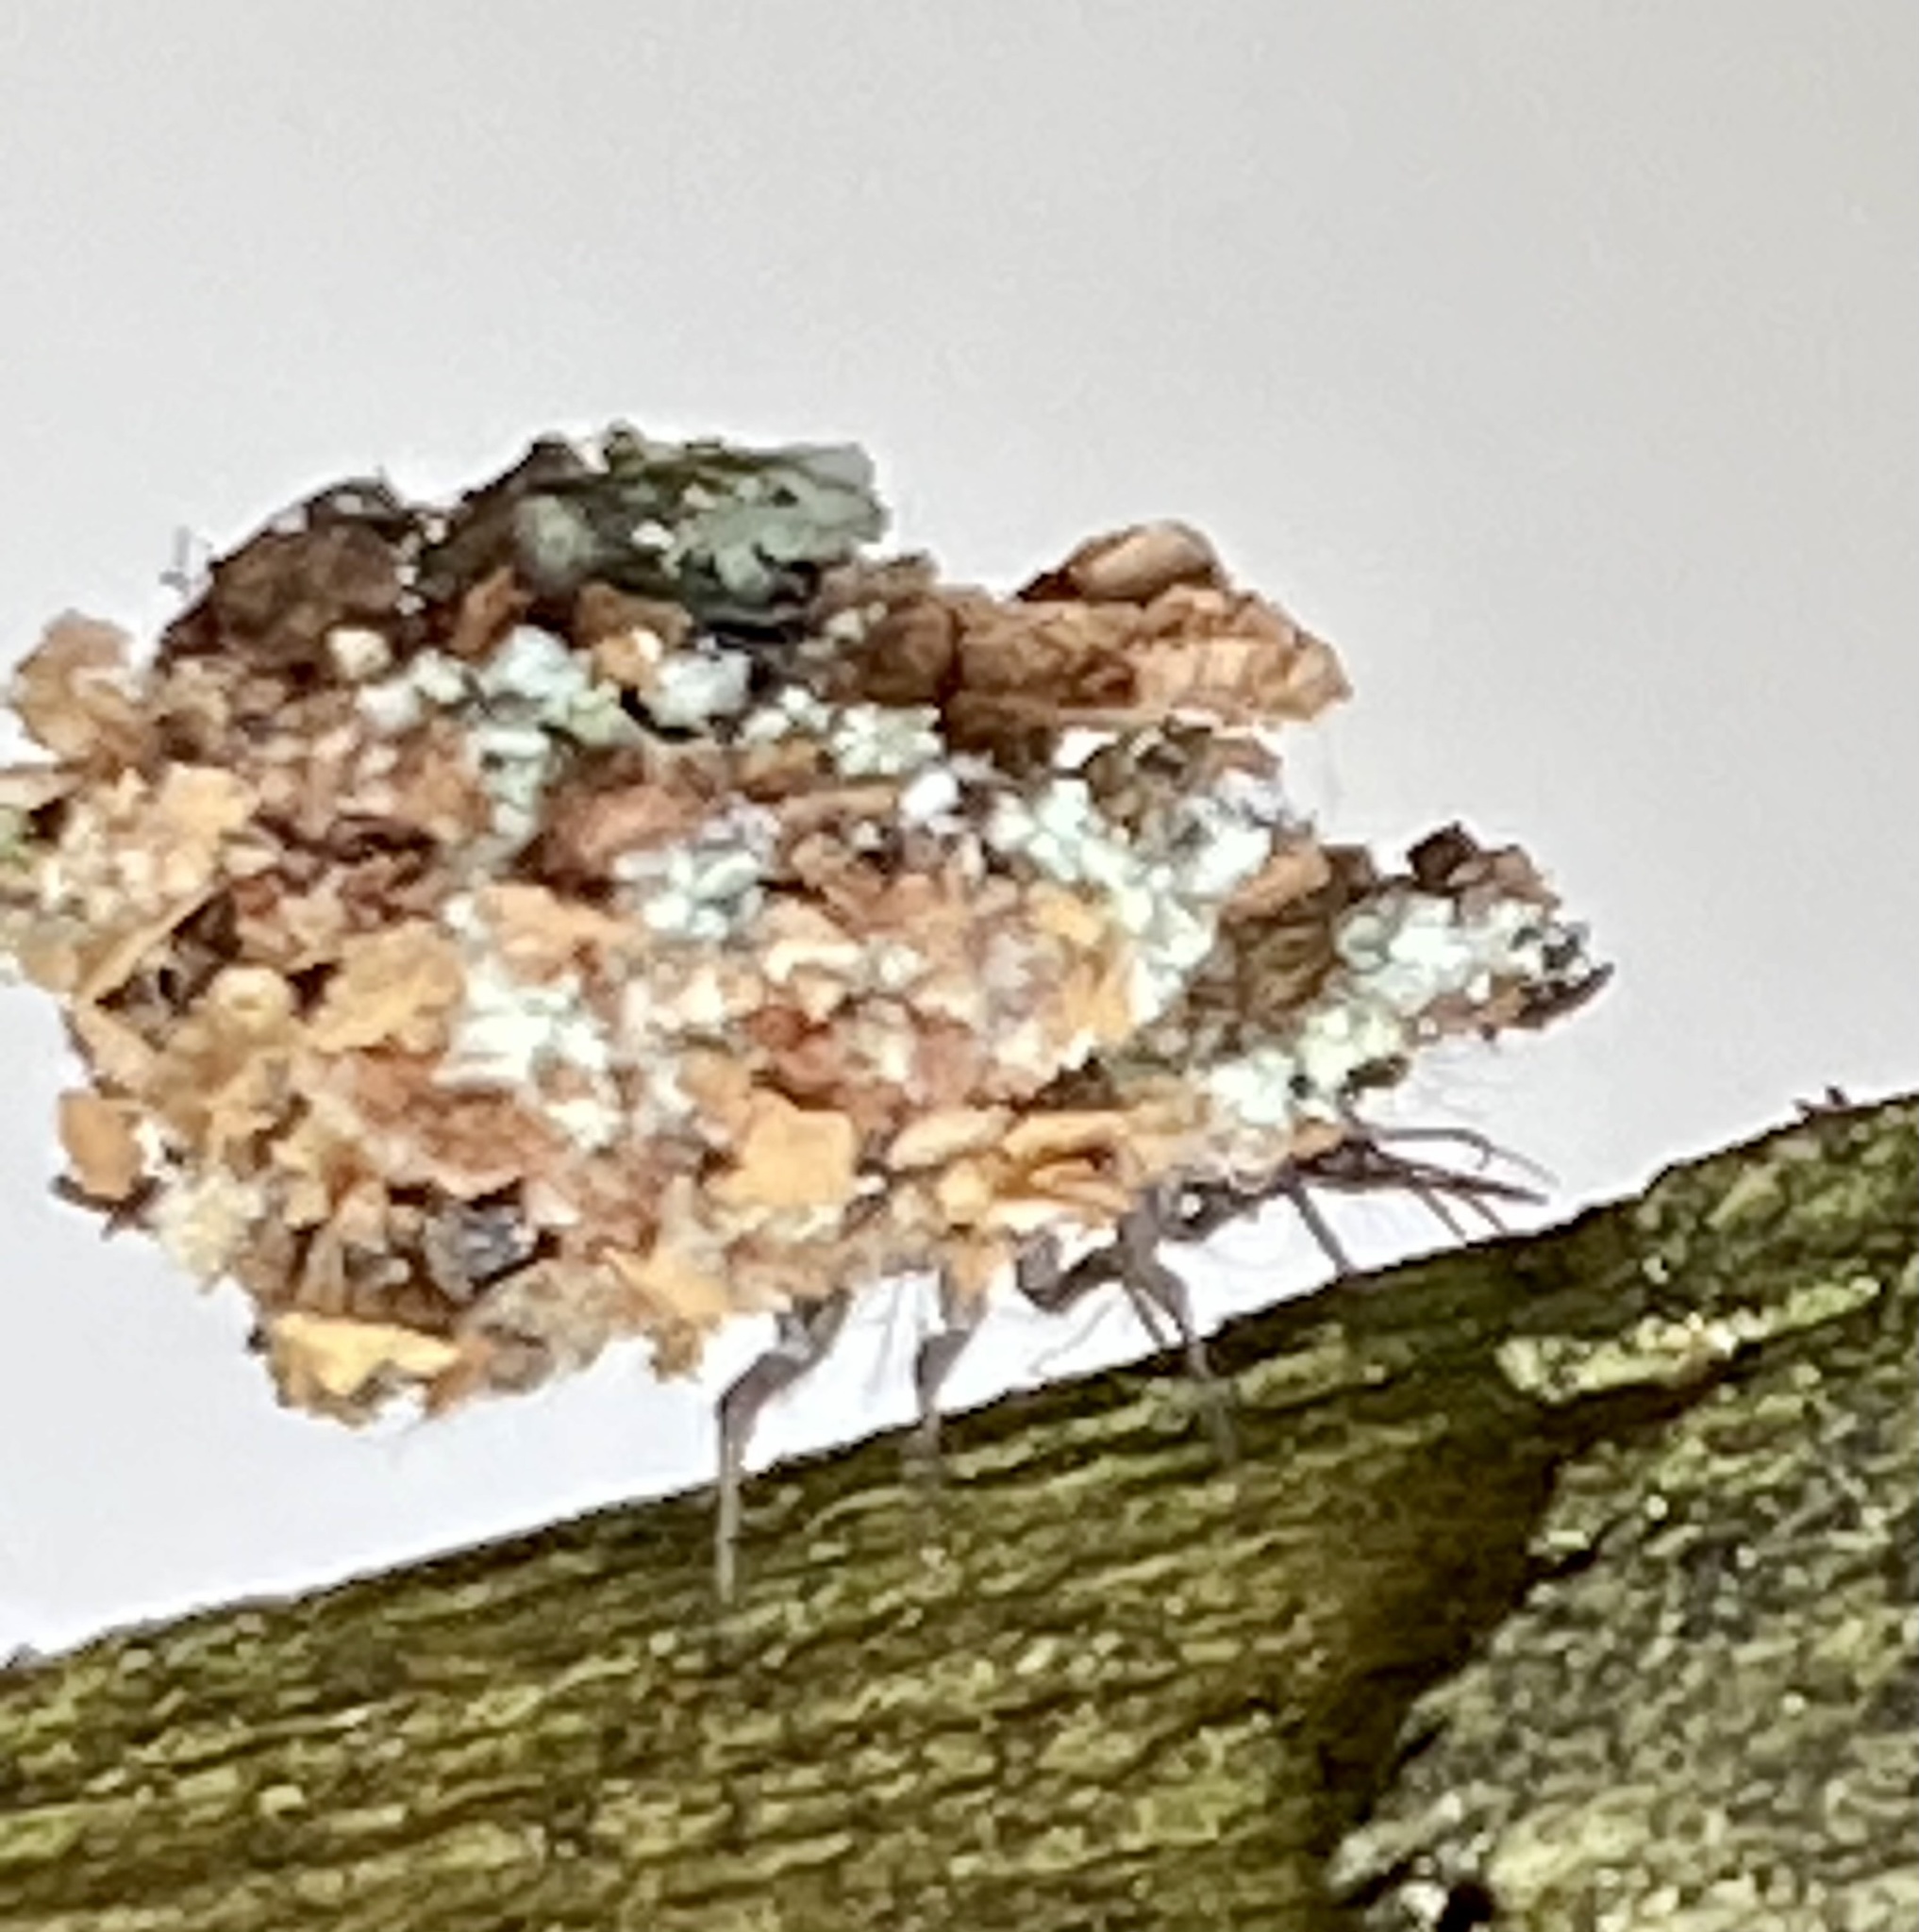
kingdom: Animalia
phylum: Arthropoda
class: Insecta
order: Neuroptera
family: Chrysopidae
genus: Leucochrysa
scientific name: Leucochrysa pavida
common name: Lichen-carrying green lacewing
